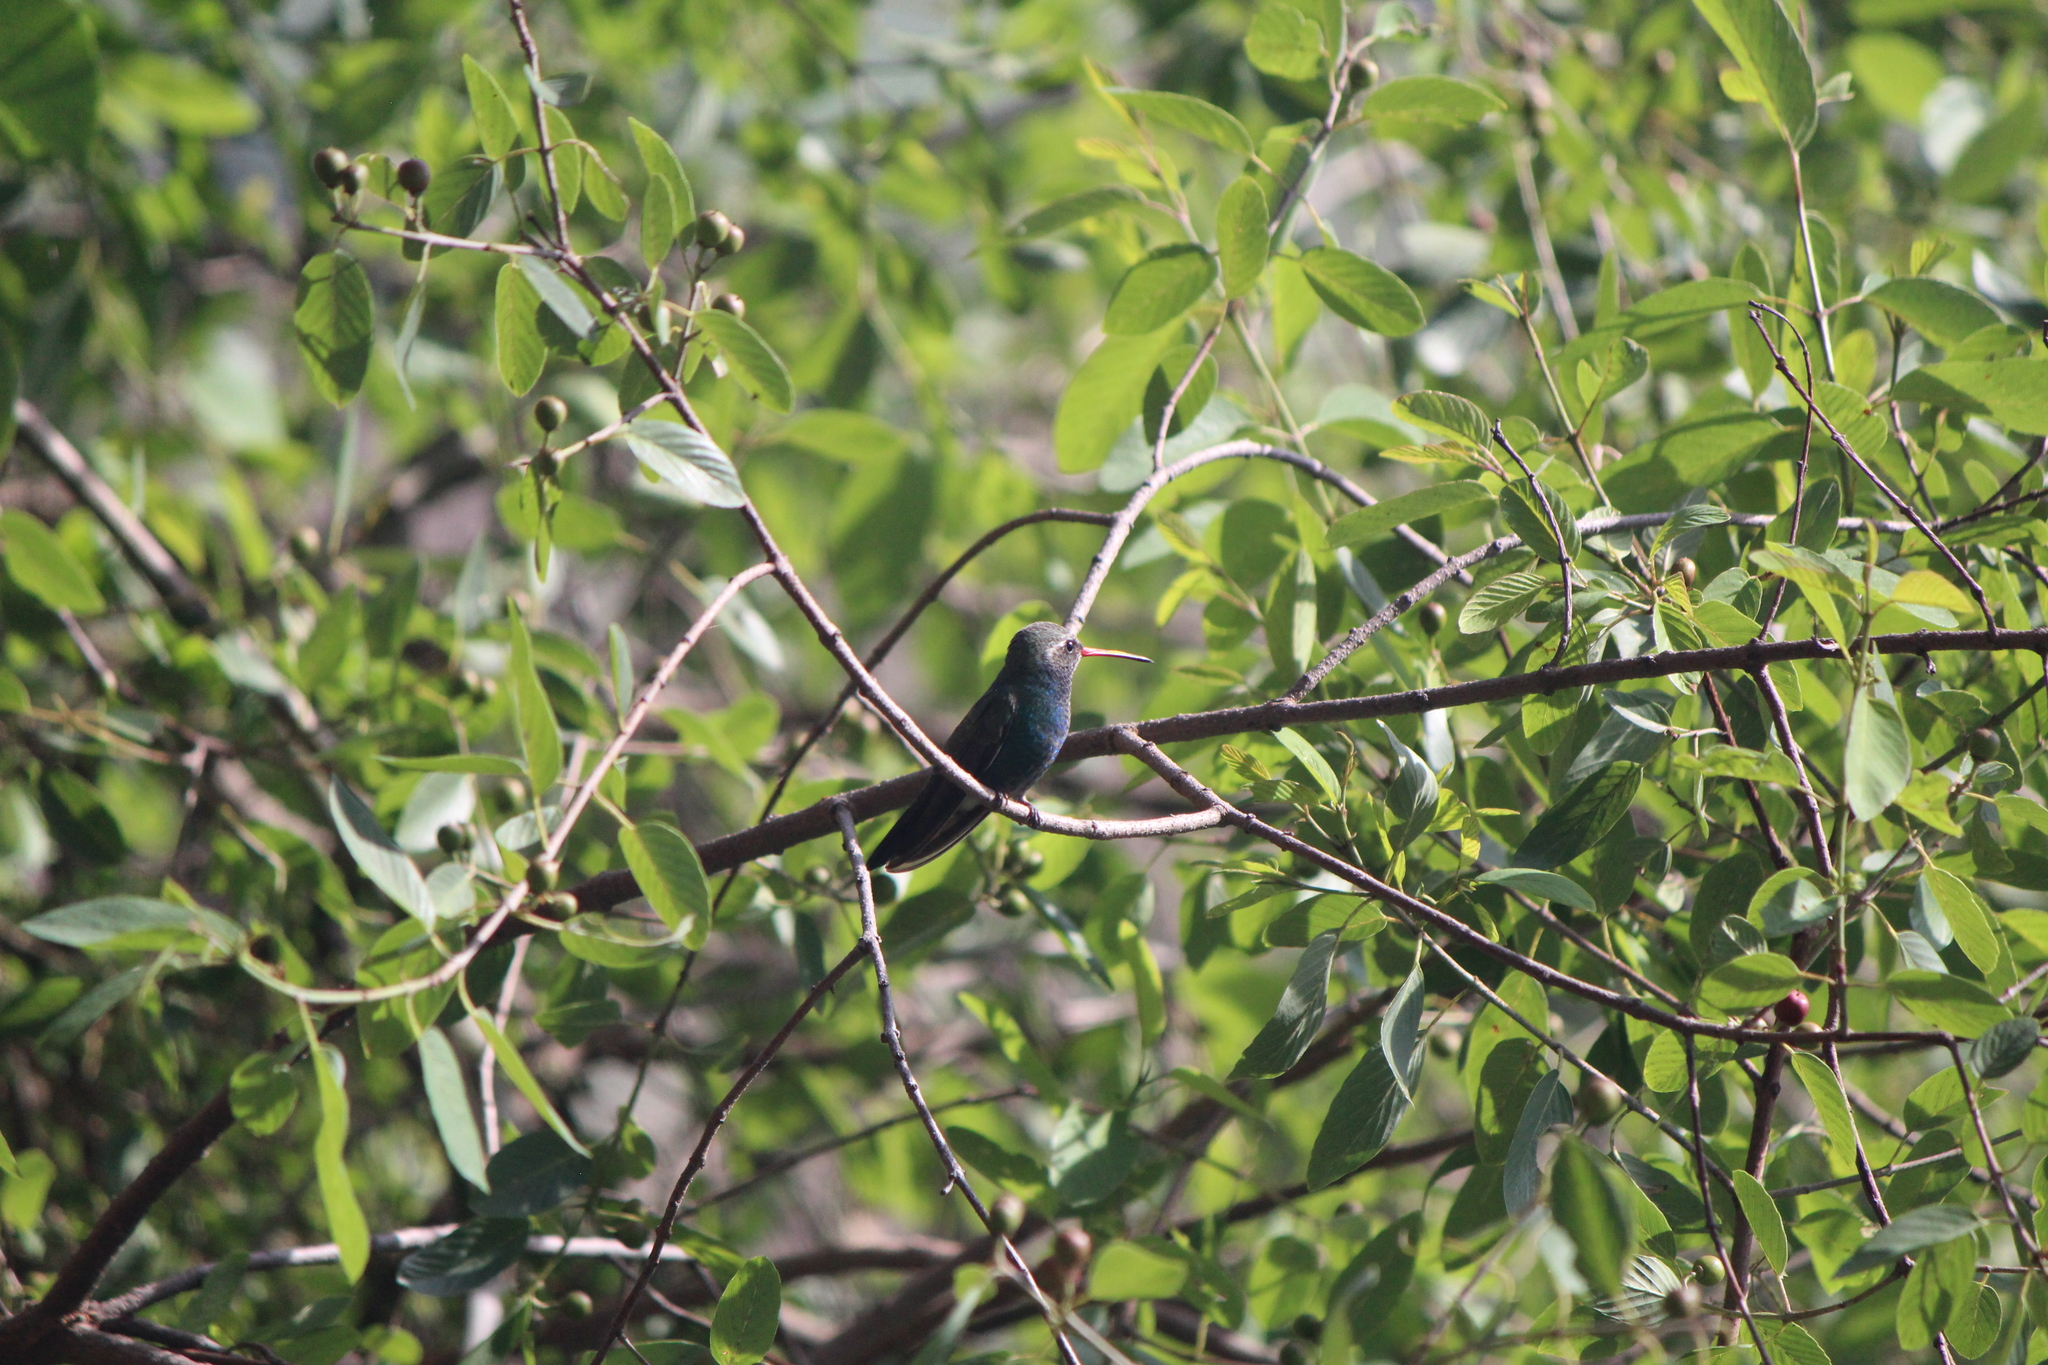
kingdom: Animalia
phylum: Chordata
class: Aves
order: Apodiformes
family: Trochilidae
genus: Cynanthus
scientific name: Cynanthus latirostris
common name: Broad-billed hummingbird
